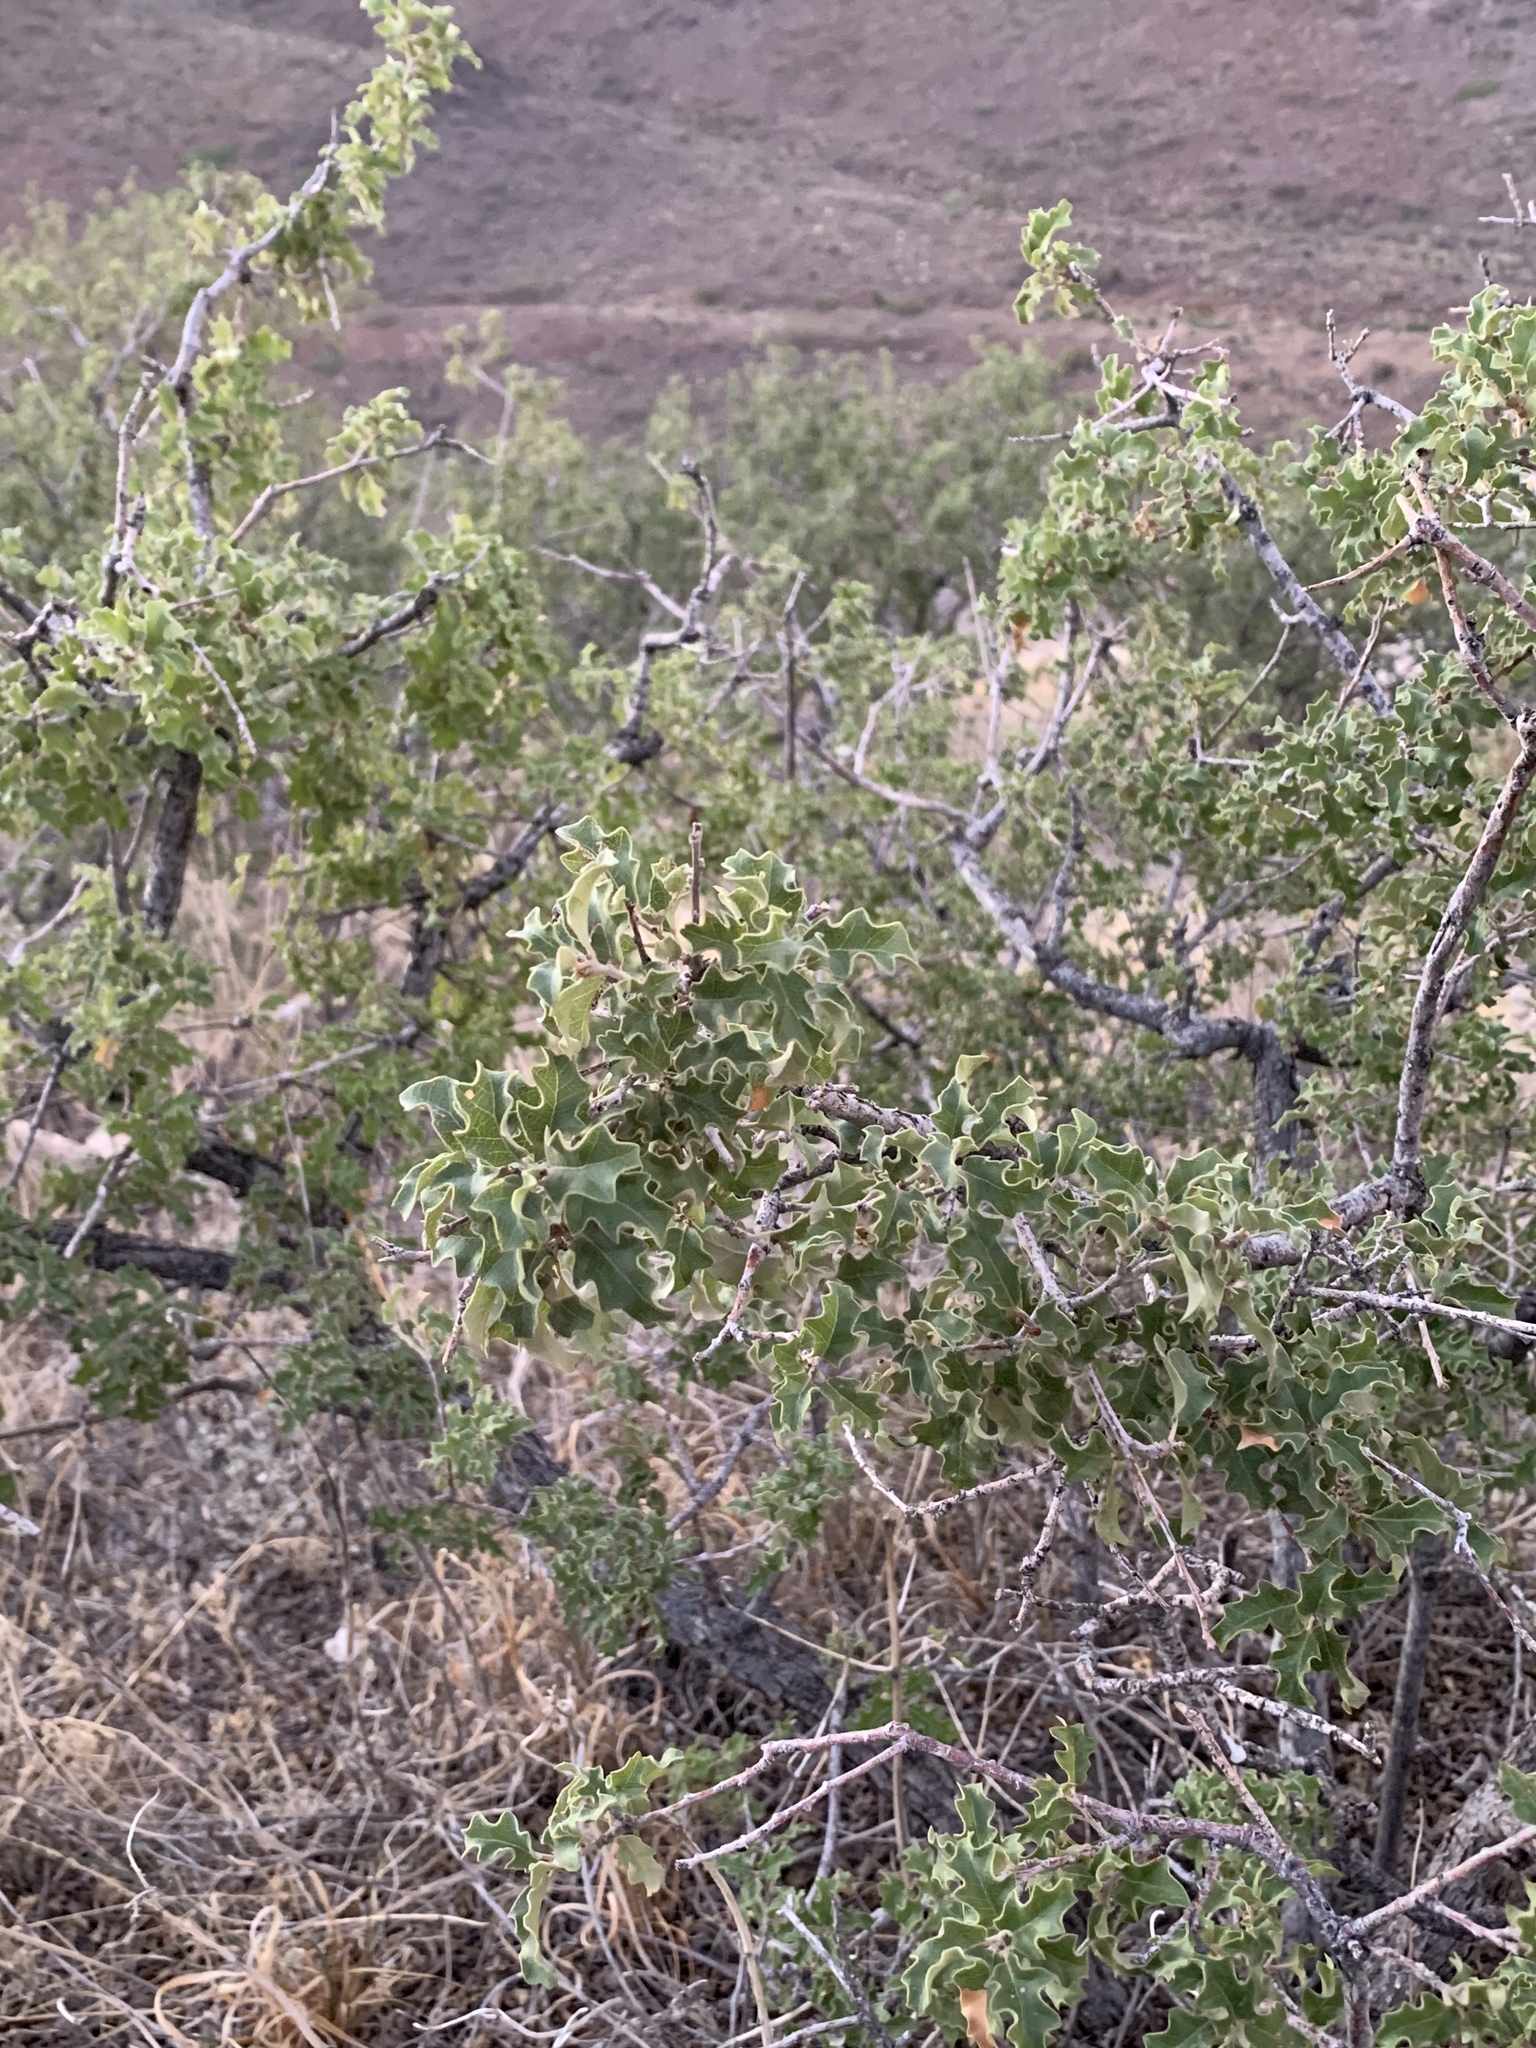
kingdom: Plantae
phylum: Tracheophyta
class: Magnoliopsida
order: Fagales
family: Fagaceae
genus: Quercus
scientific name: Quercus pungens
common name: Pungent oak
